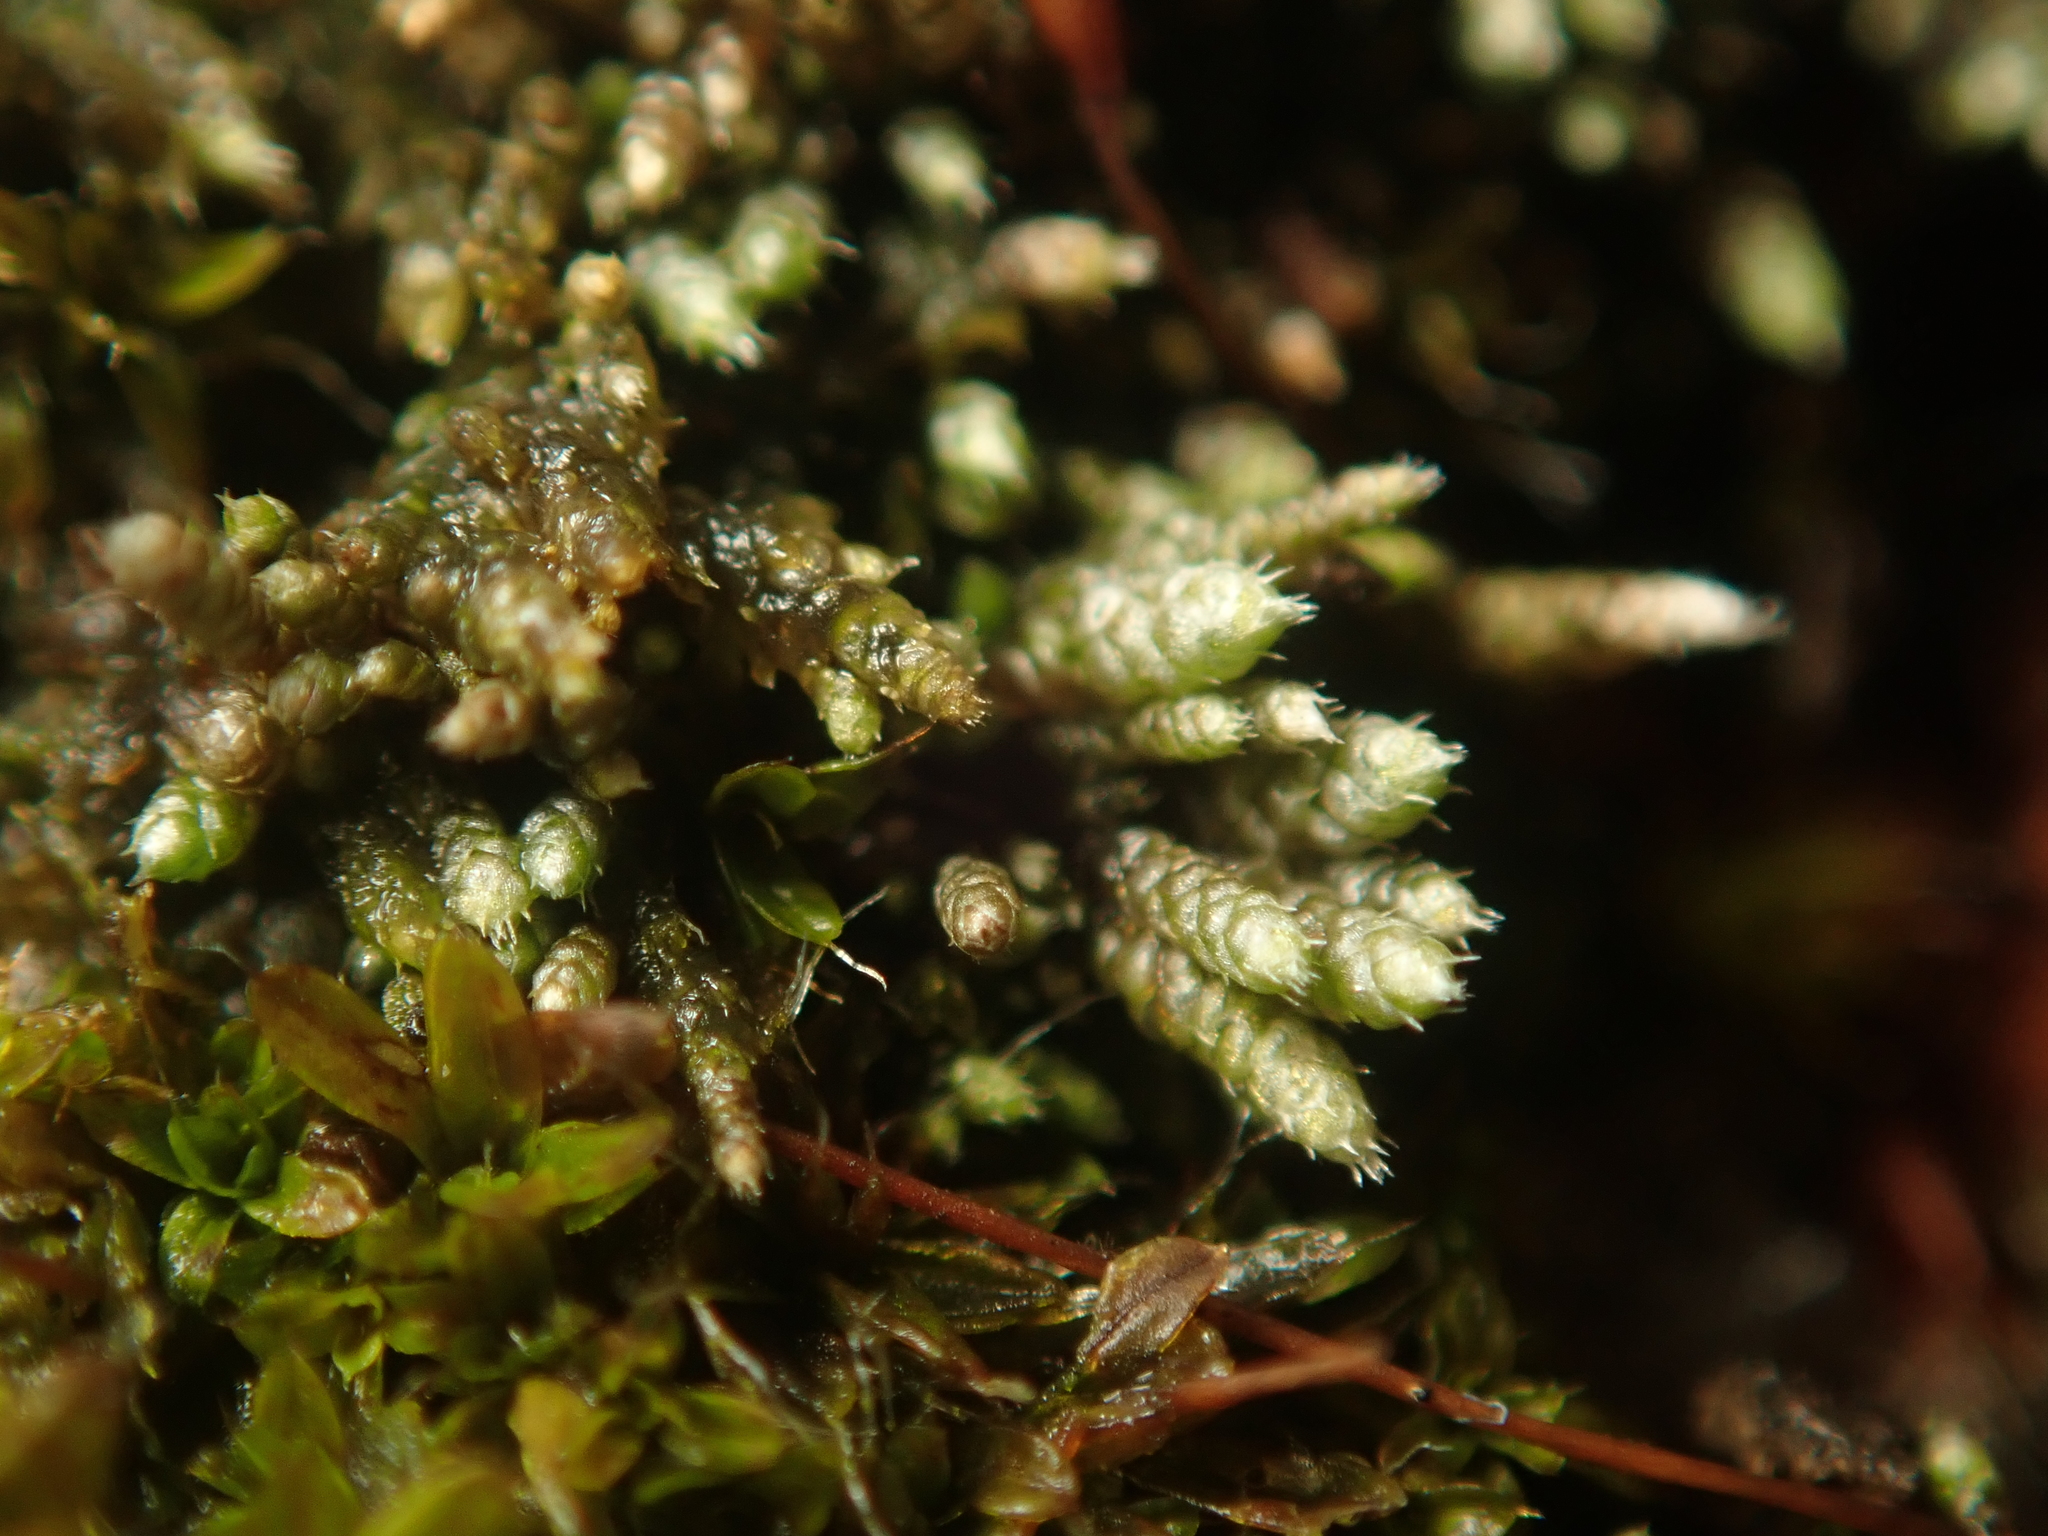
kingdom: Plantae
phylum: Bryophyta
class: Bryopsida
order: Bryales
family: Bryaceae
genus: Bryum
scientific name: Bryum argenteum
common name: Silver-moss
